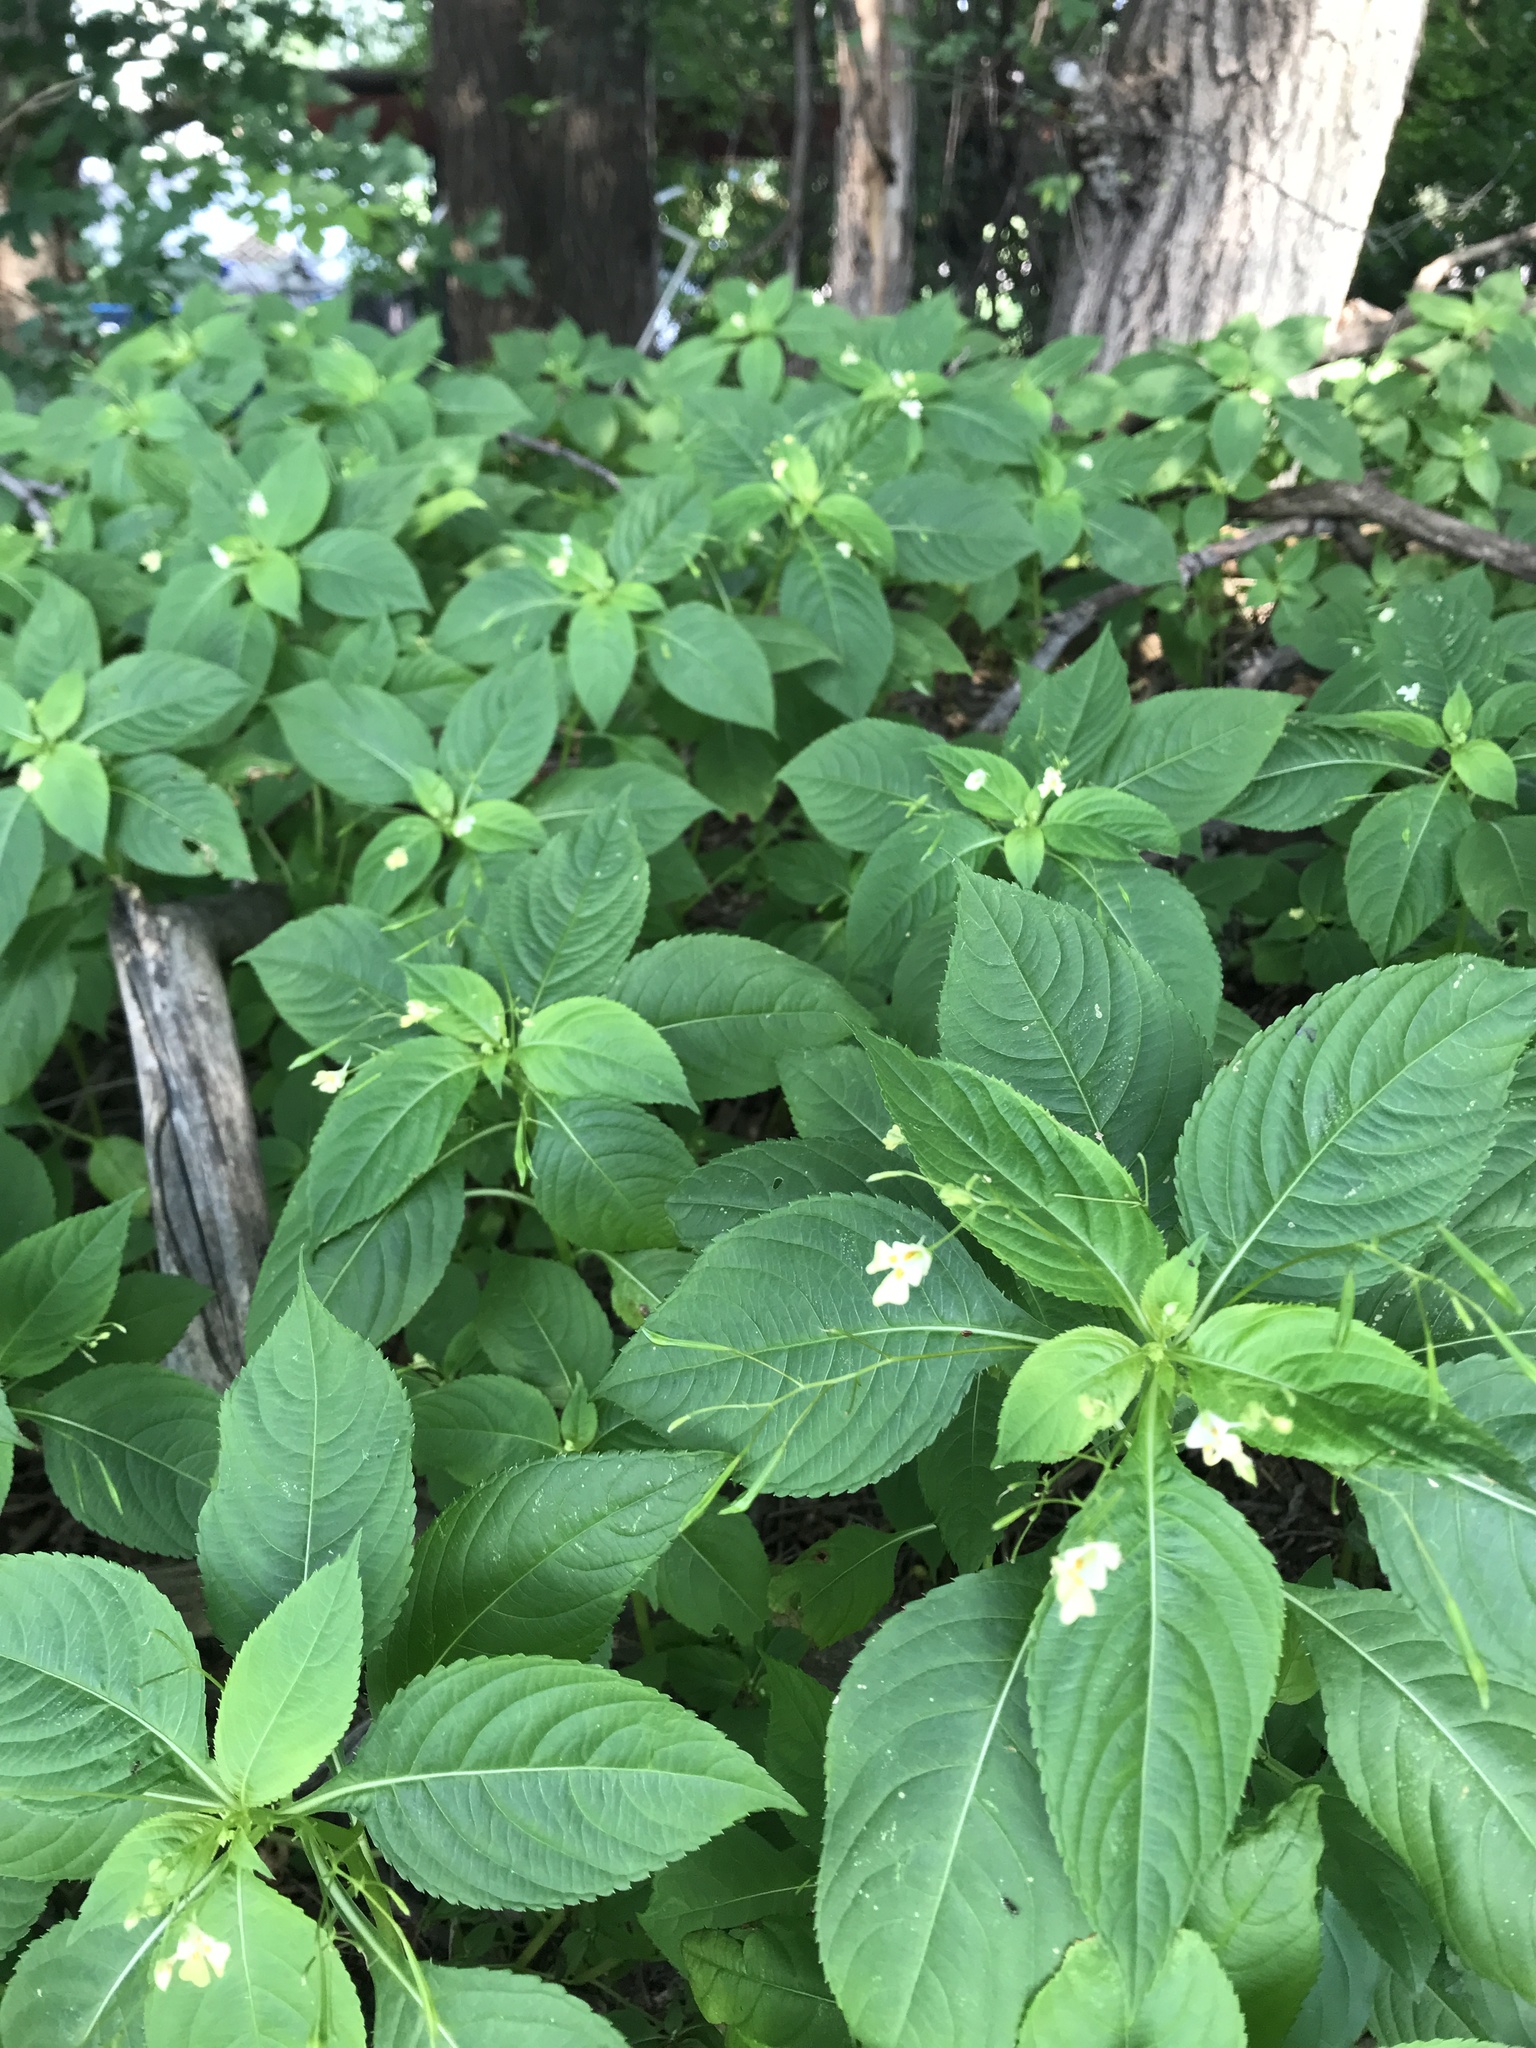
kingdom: Plantae
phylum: Tracheophyta
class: Magnoliopsida
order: Ericales
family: Balsaminaceae
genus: Impatiens
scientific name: Impatiens parviflora
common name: Small balsam
